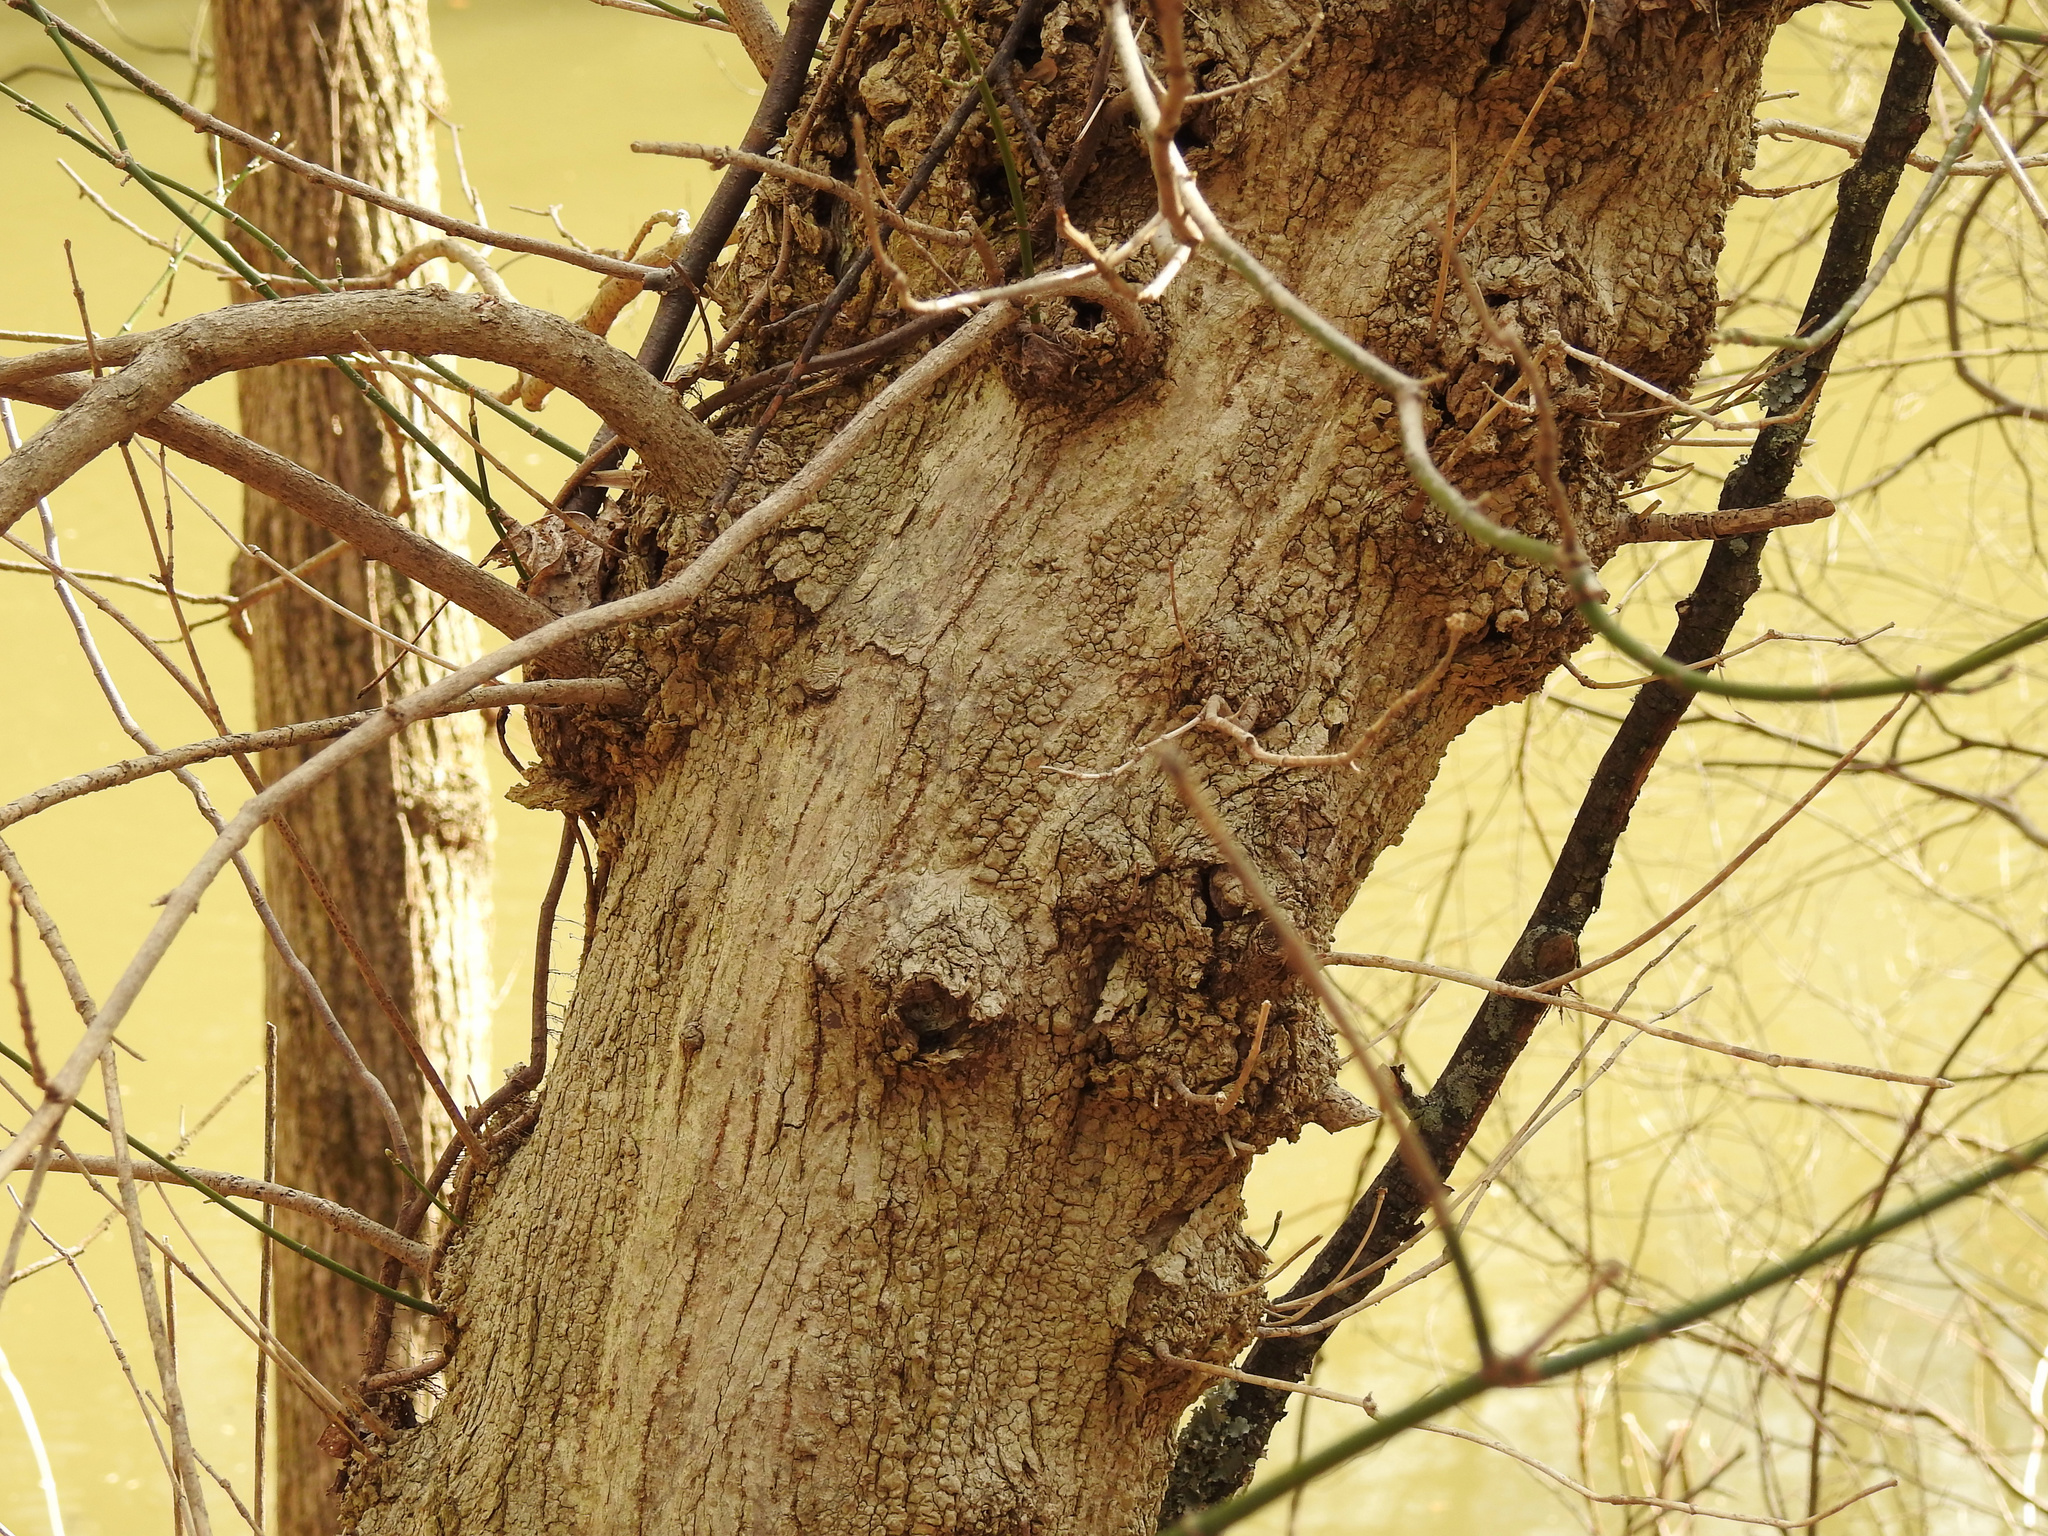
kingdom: Plantae
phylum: Tracheophyta
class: Magnoliopsida
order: Sapindales
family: Sapindaceae
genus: Acer
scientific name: Acer negundo
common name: Ashleaf maple
